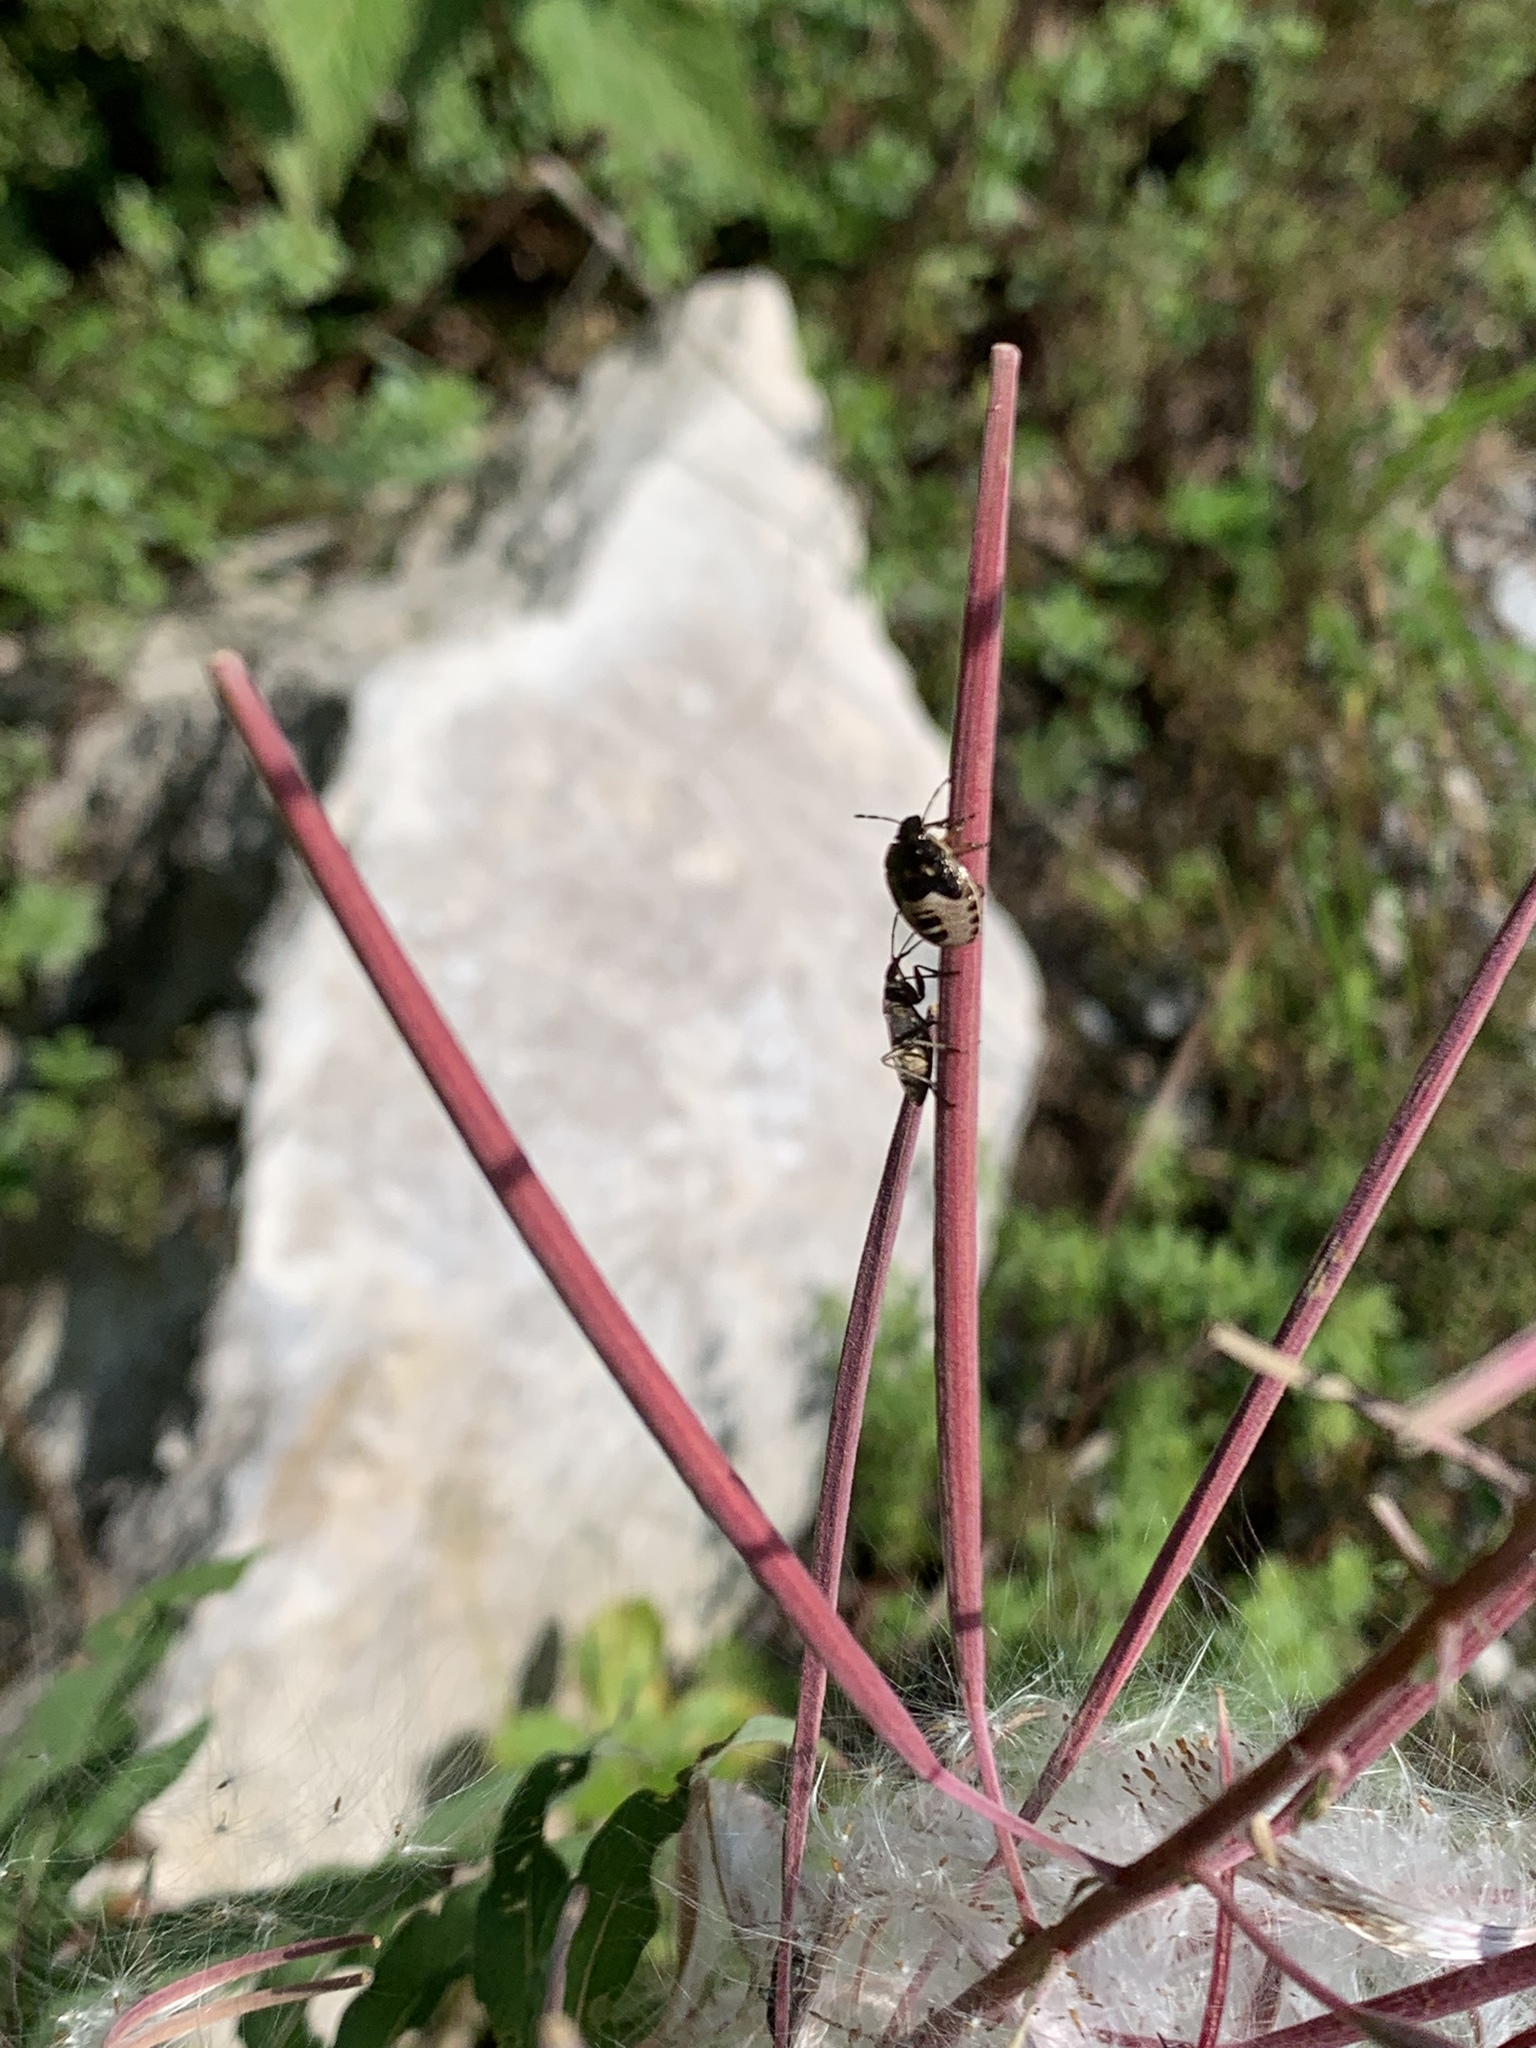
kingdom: Animalia
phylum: Arthropoda
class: Insecta
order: Hemiptera
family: Pentatomidae
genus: Holcostethus
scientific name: Holcostethus sphacelatus
